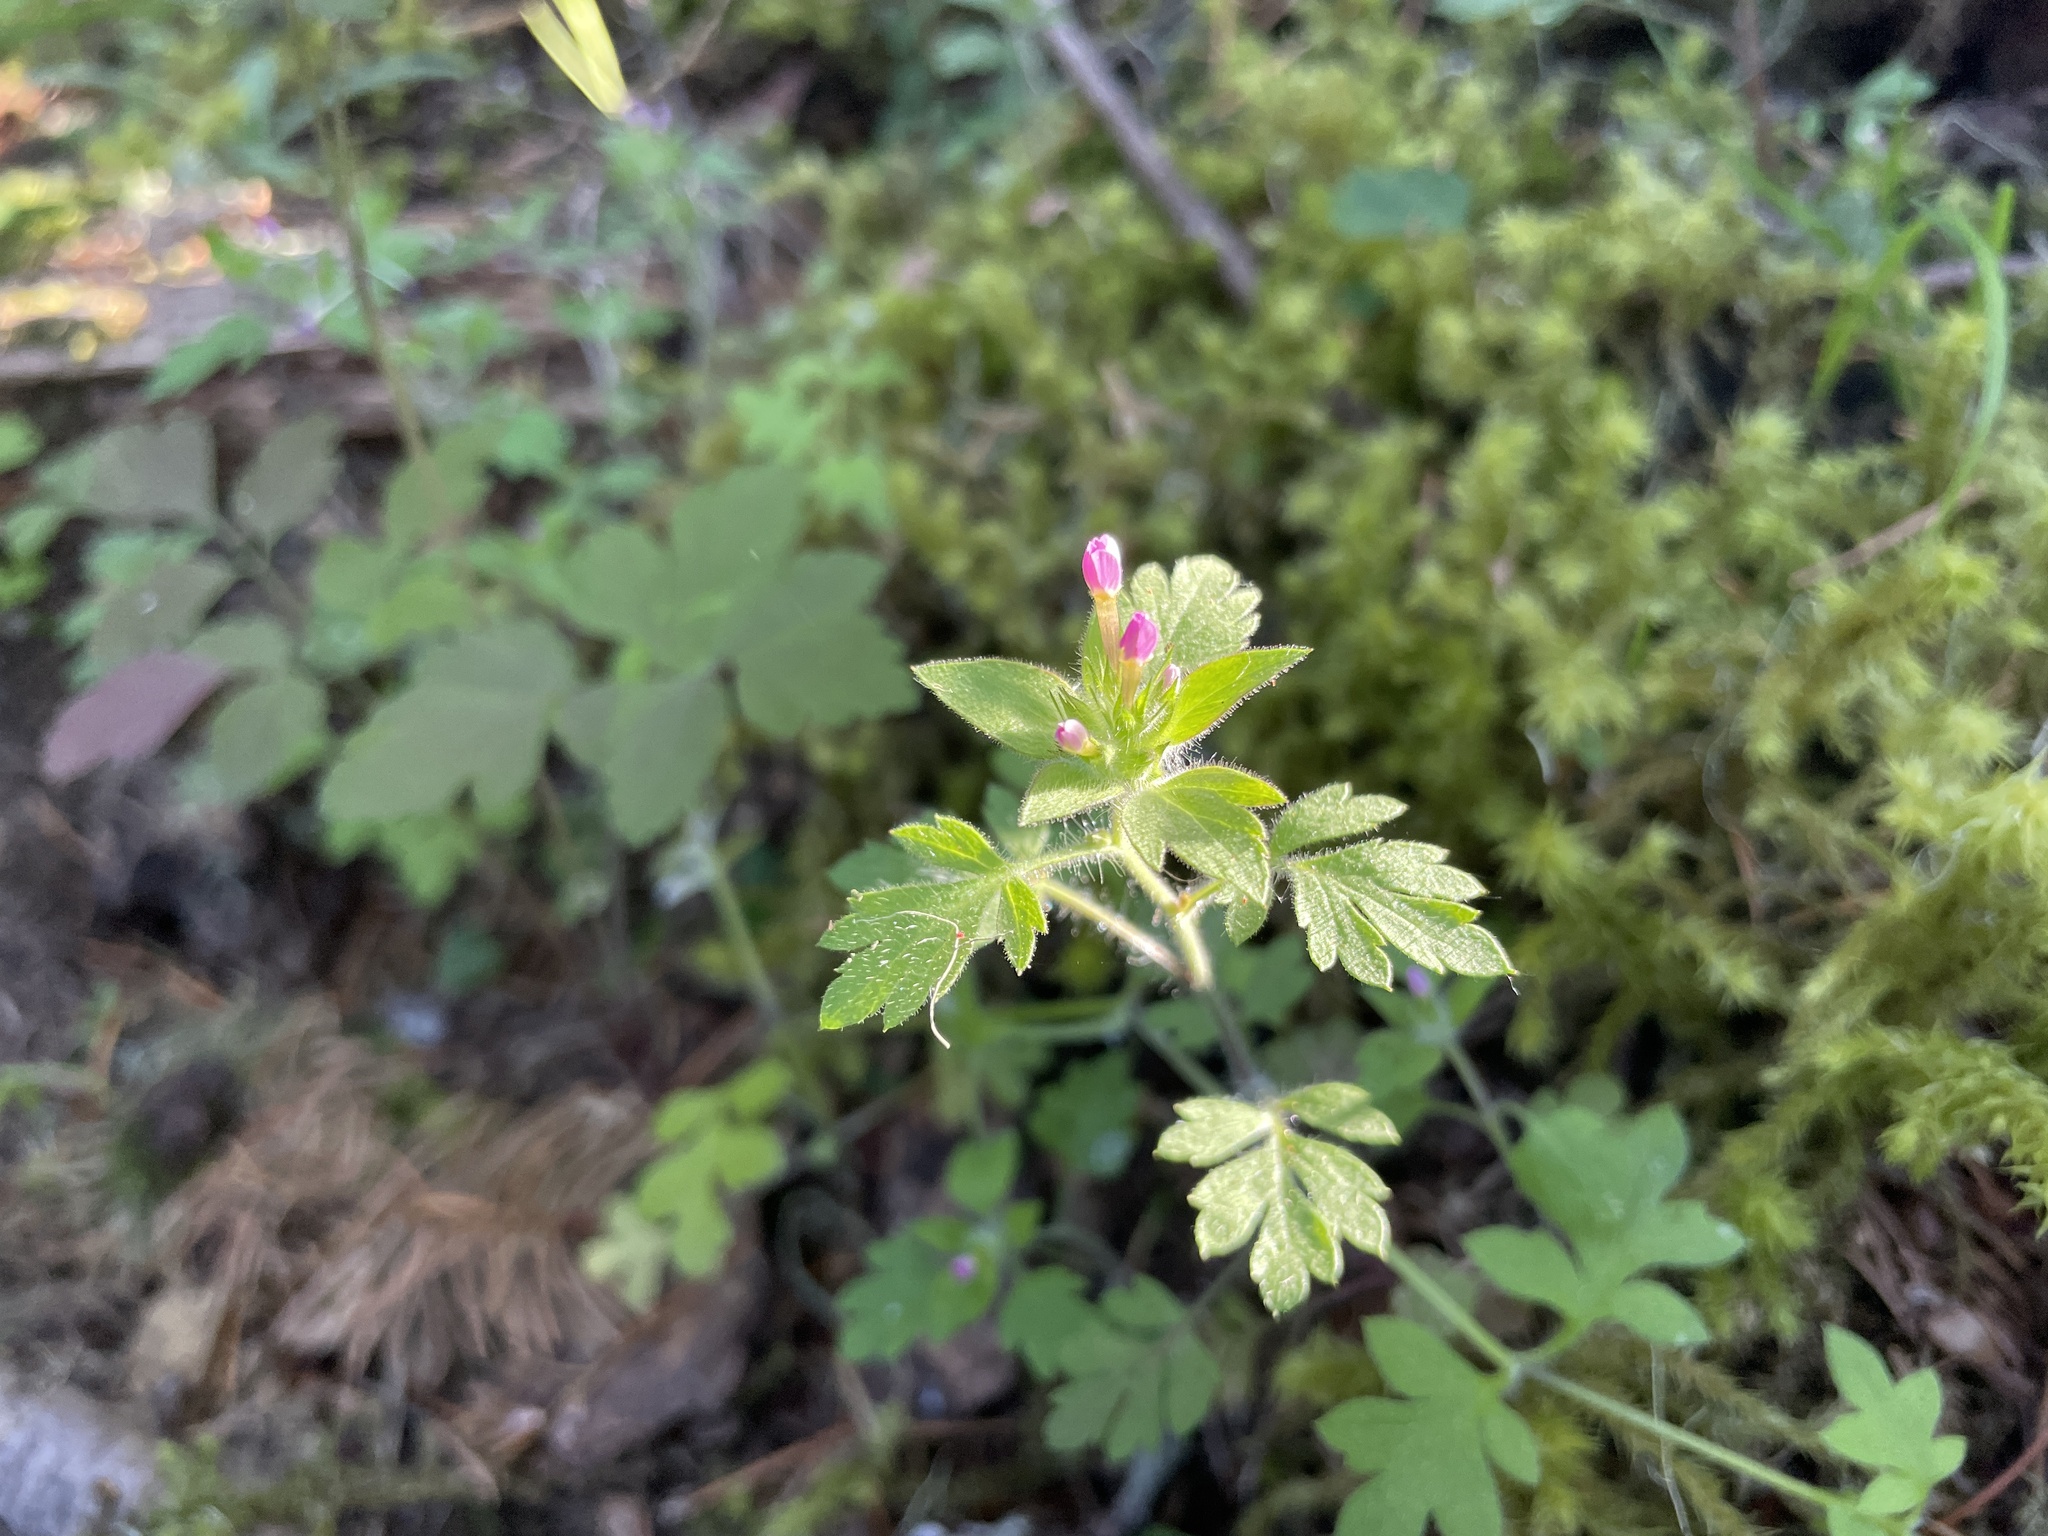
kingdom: Plantae
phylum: Tracheophyta
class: Magnoliopsida
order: Ericales
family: Polemoniaceae
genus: Collomia
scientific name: Collomia heterophylla
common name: Variable-leaved collomia
